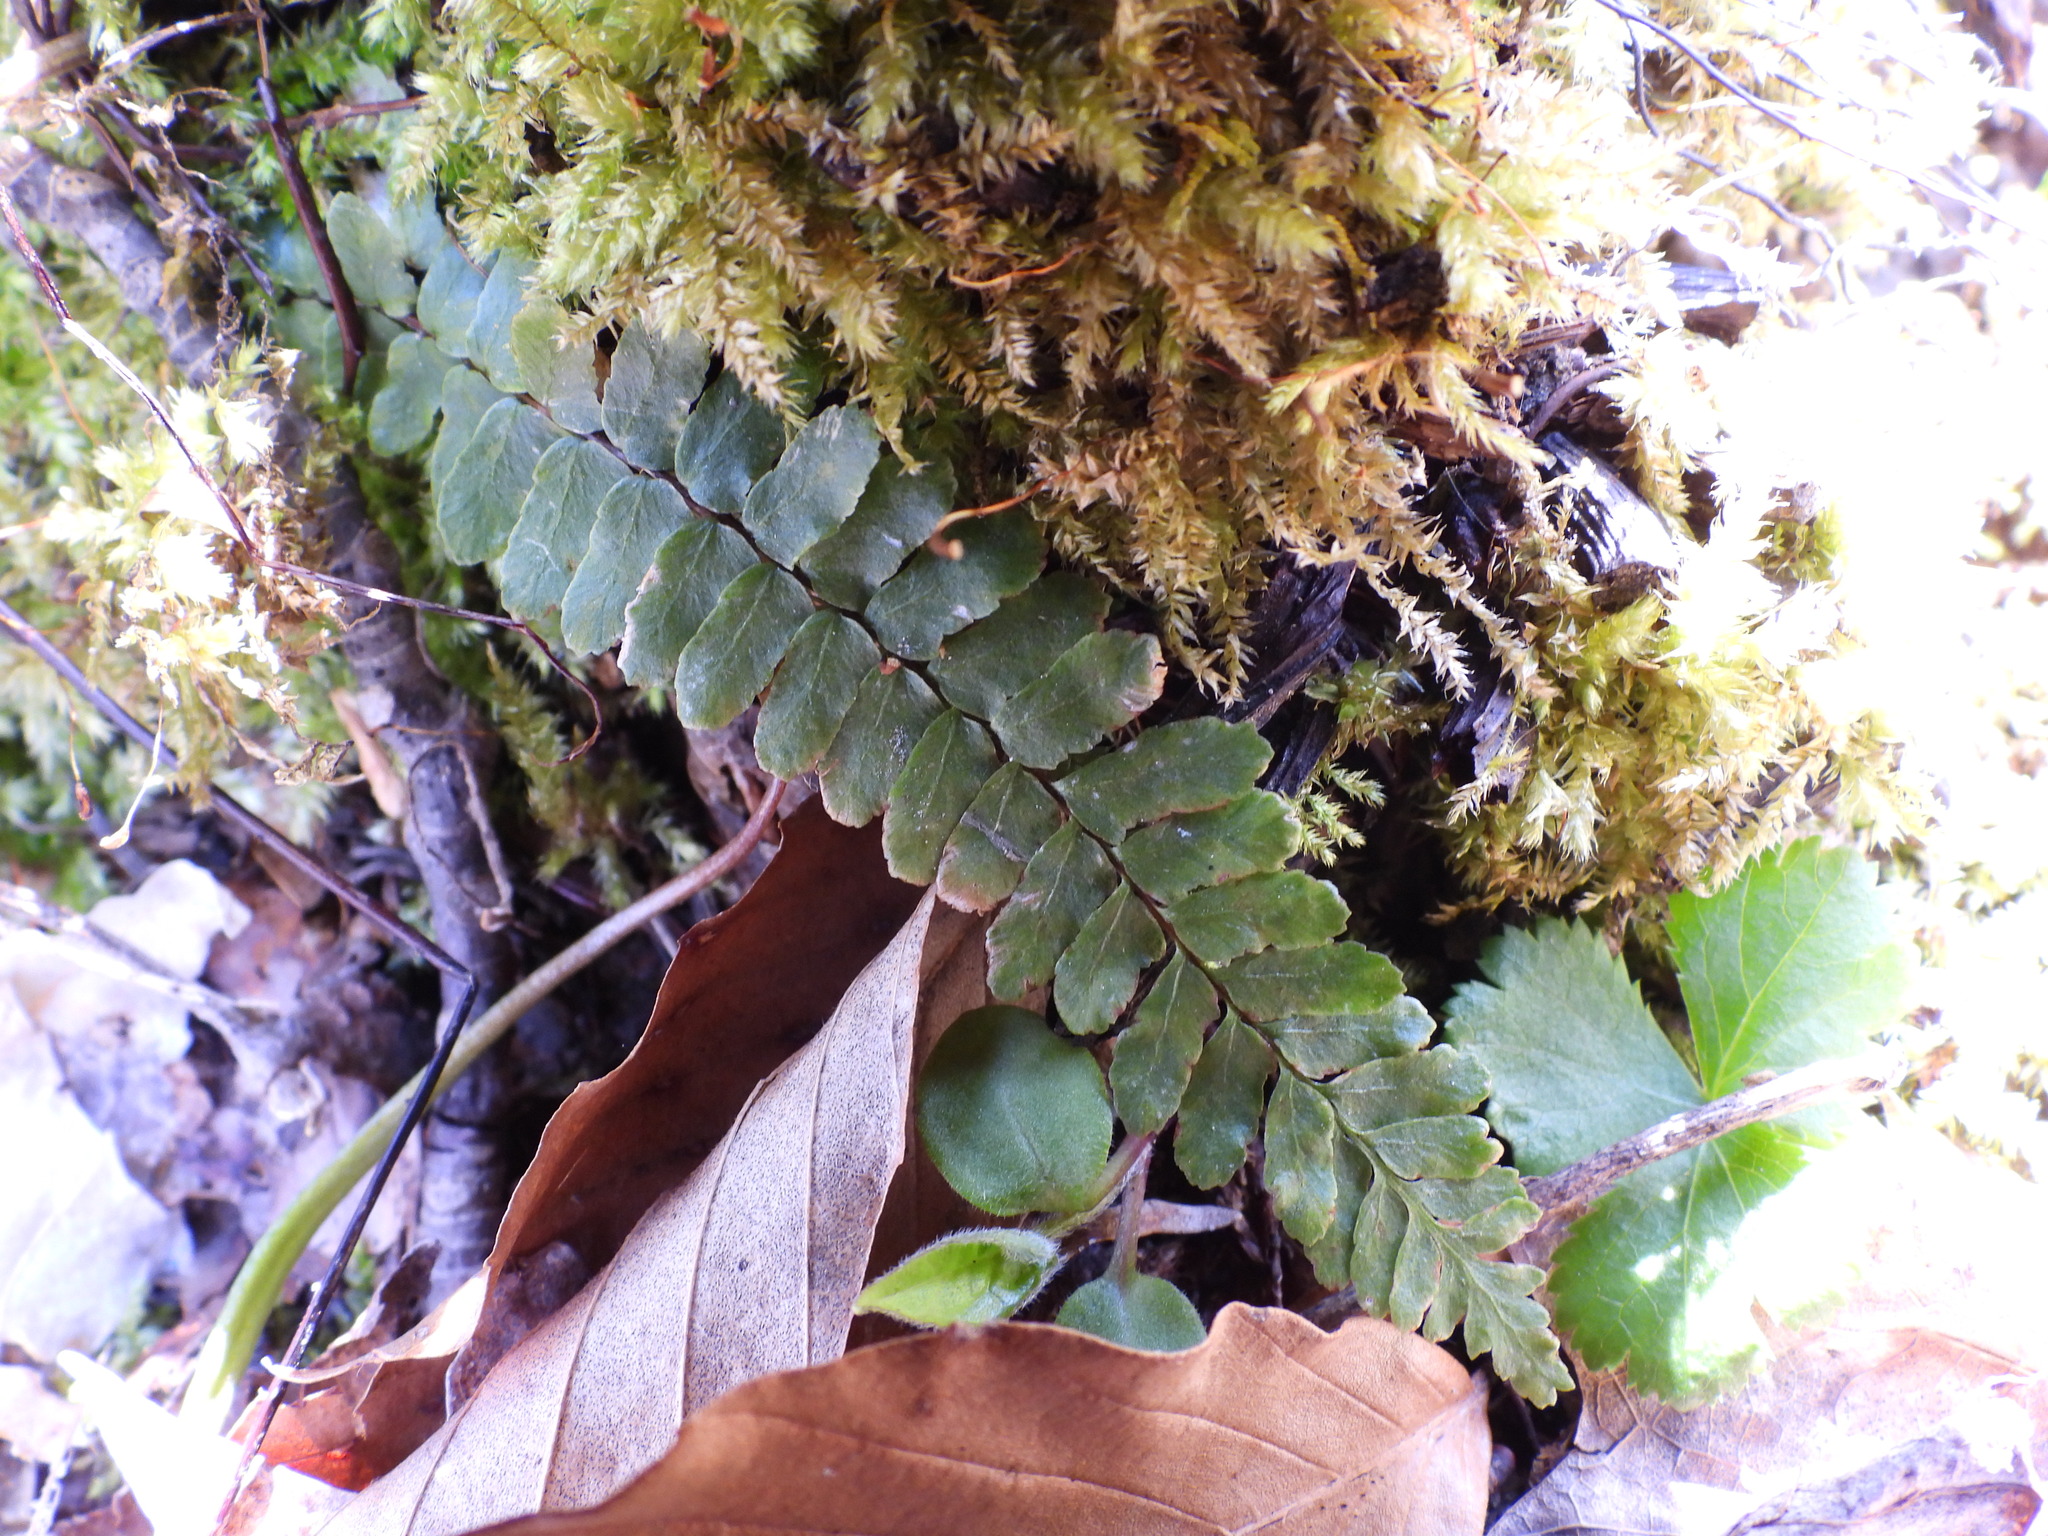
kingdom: Plantae
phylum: Tracheophyta
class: Polypodiopsida
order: Polypodiales
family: Aspleniaceae
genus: Asplenium
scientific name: Asplenium platyneuron
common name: Ebony spleenwort
